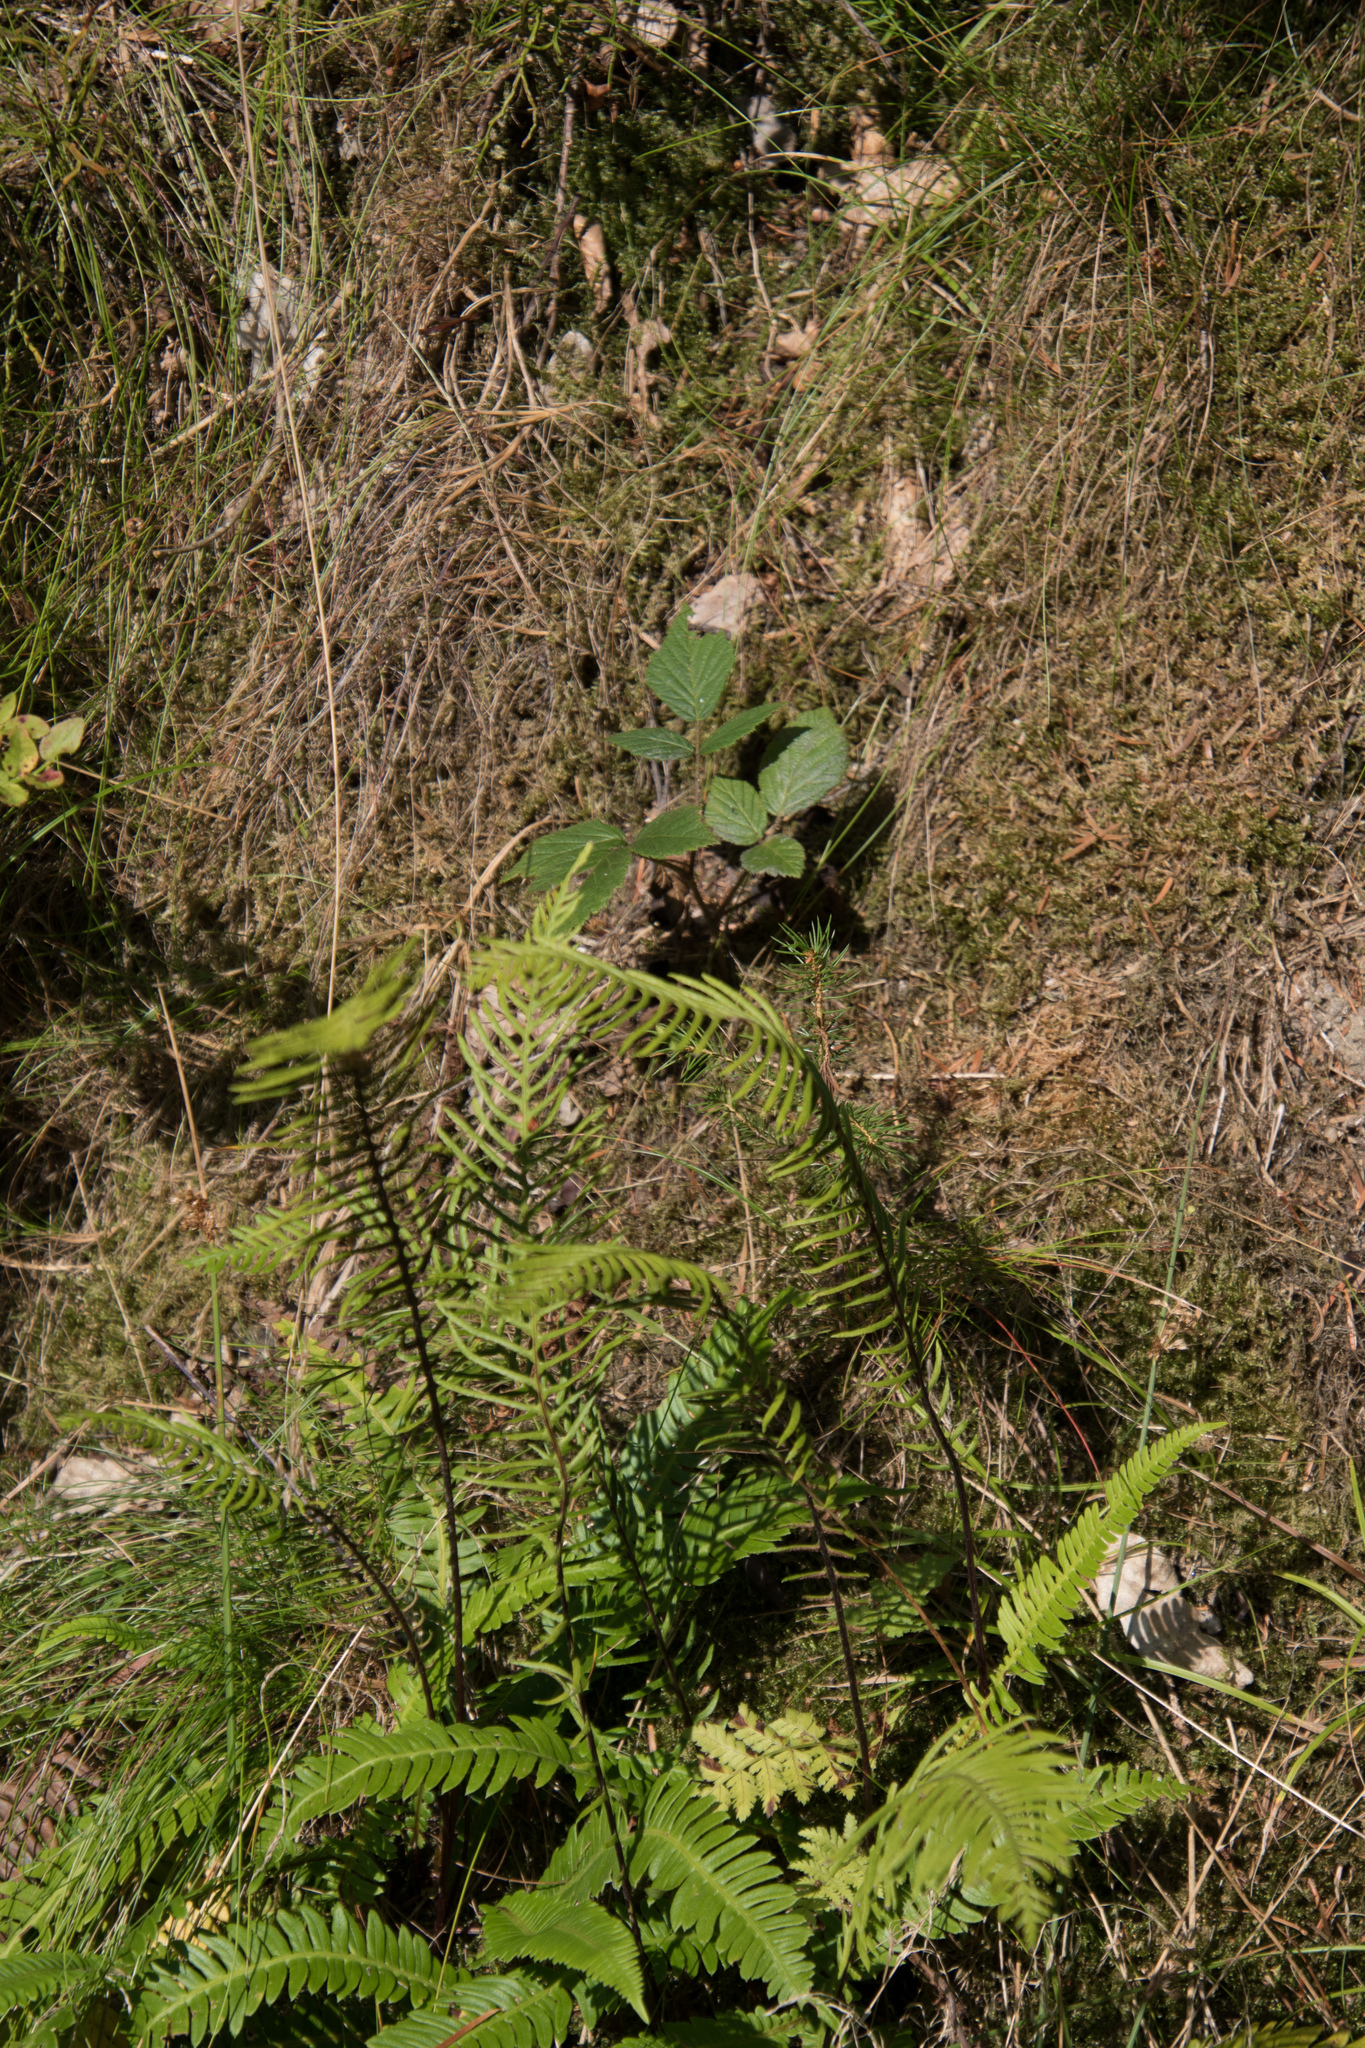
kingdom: Plantae
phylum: Tracheophyta
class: Polypodiopsida
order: Polypodiales
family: Blechnaceae
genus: Struthiopteris
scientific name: Struthiopteris spicant
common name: Deer fern
